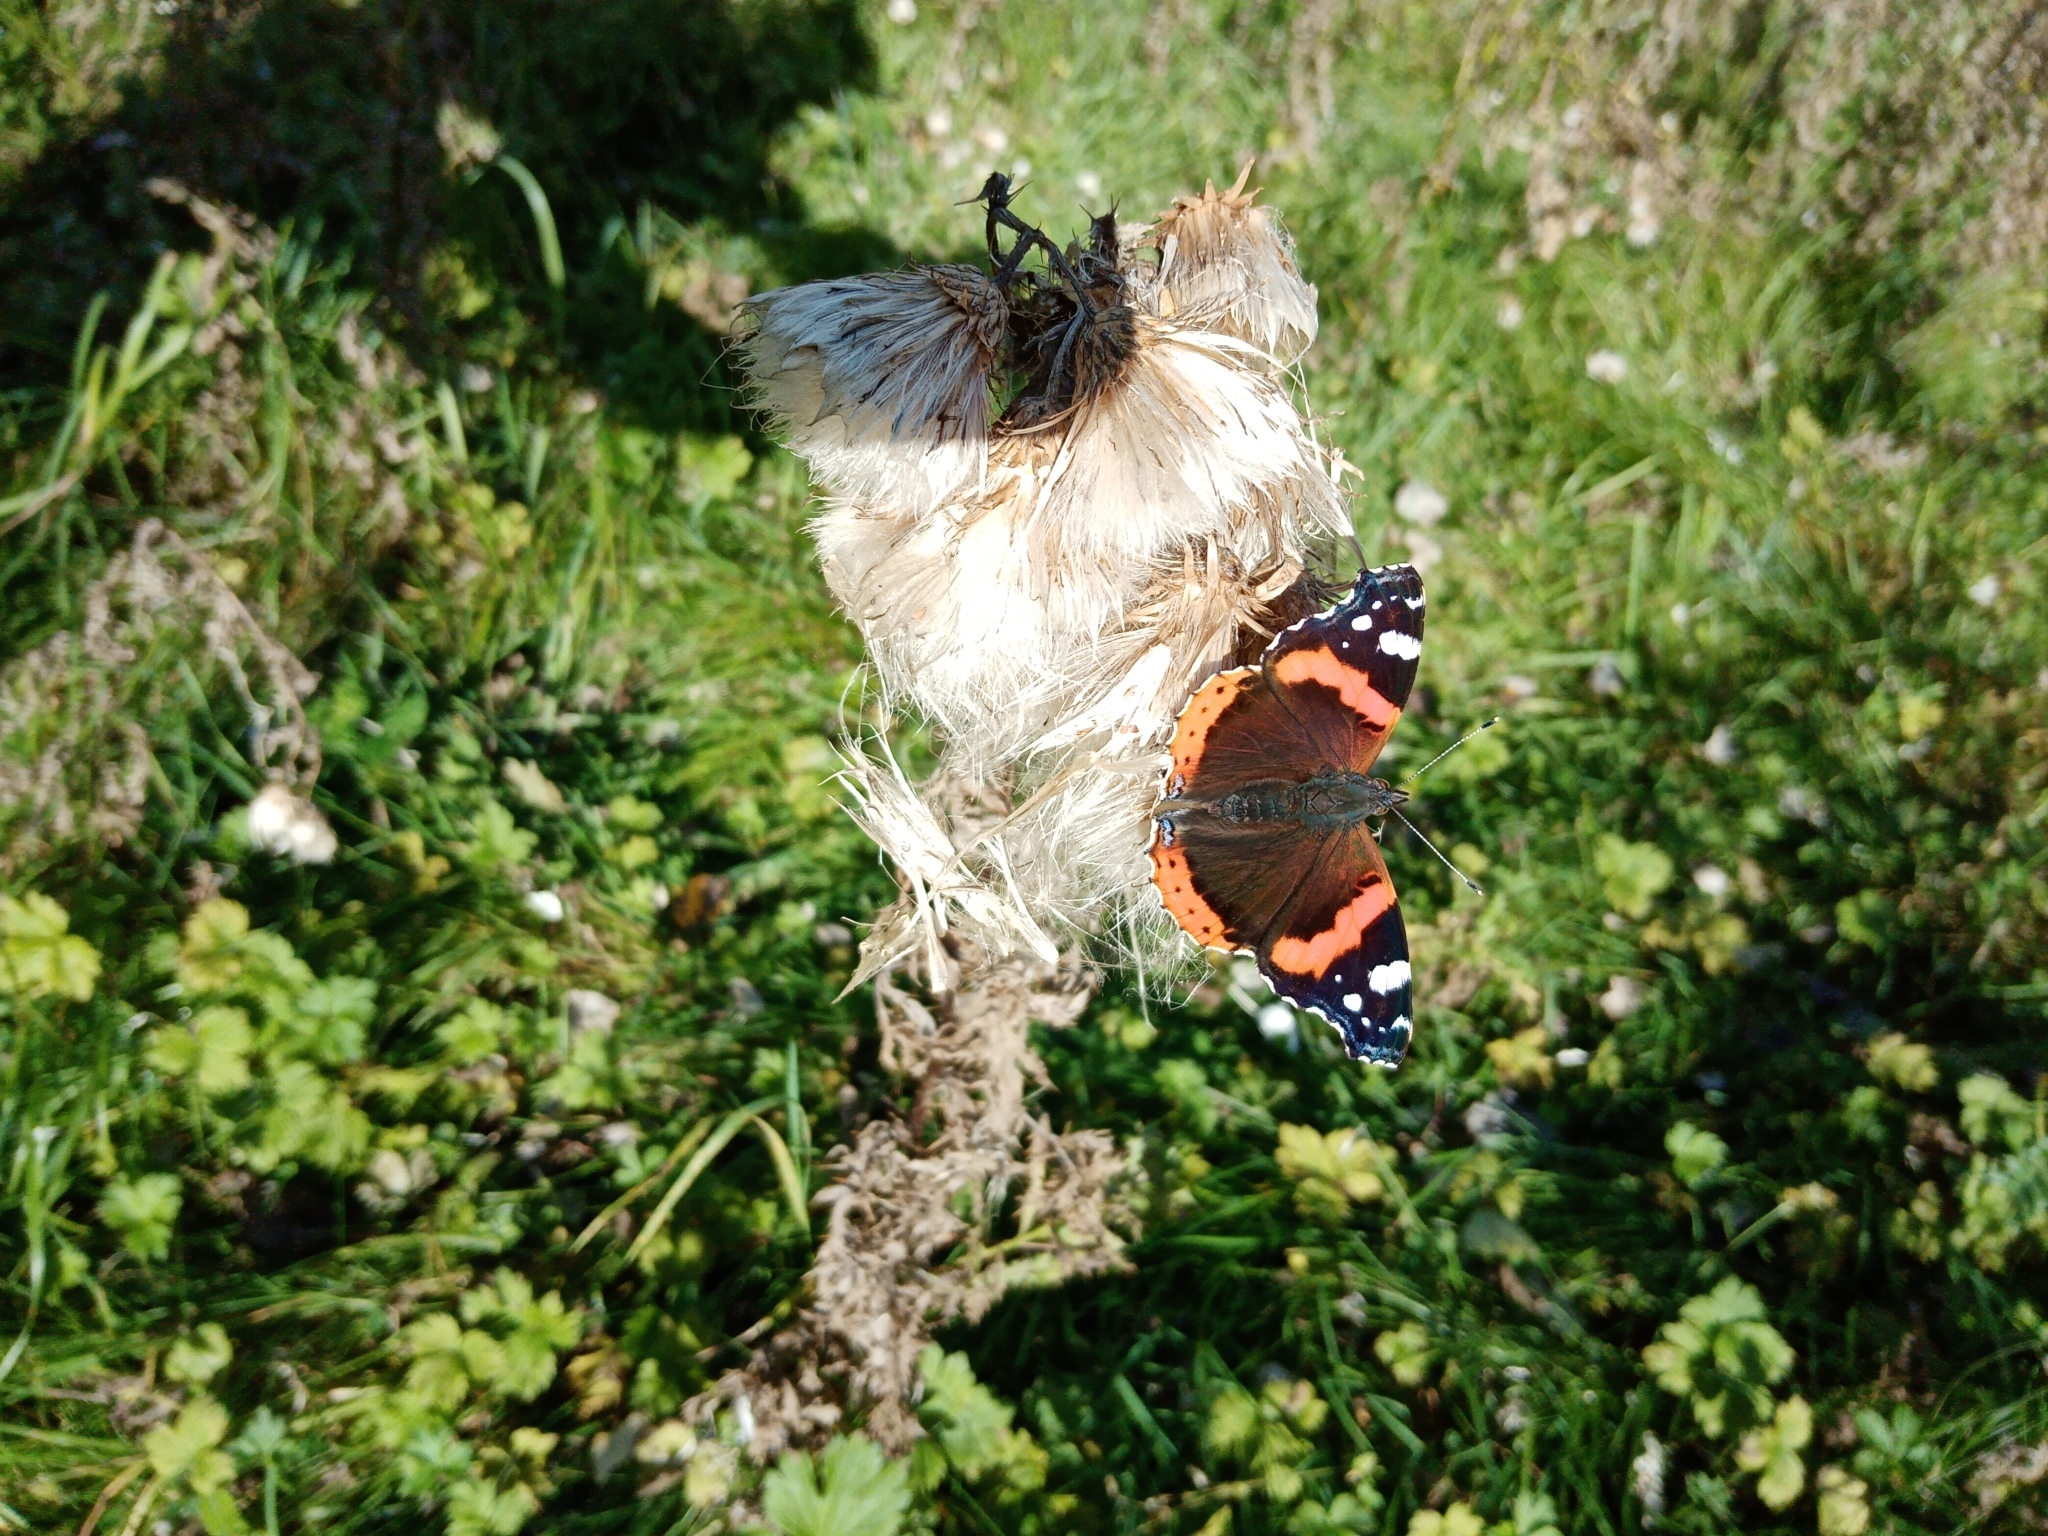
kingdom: Animalia
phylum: Arthropoda
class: Insecta
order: Lepidoptera
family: Nymphalidae
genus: Vanessa
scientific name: Vanessa atalanta
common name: Red admiral
